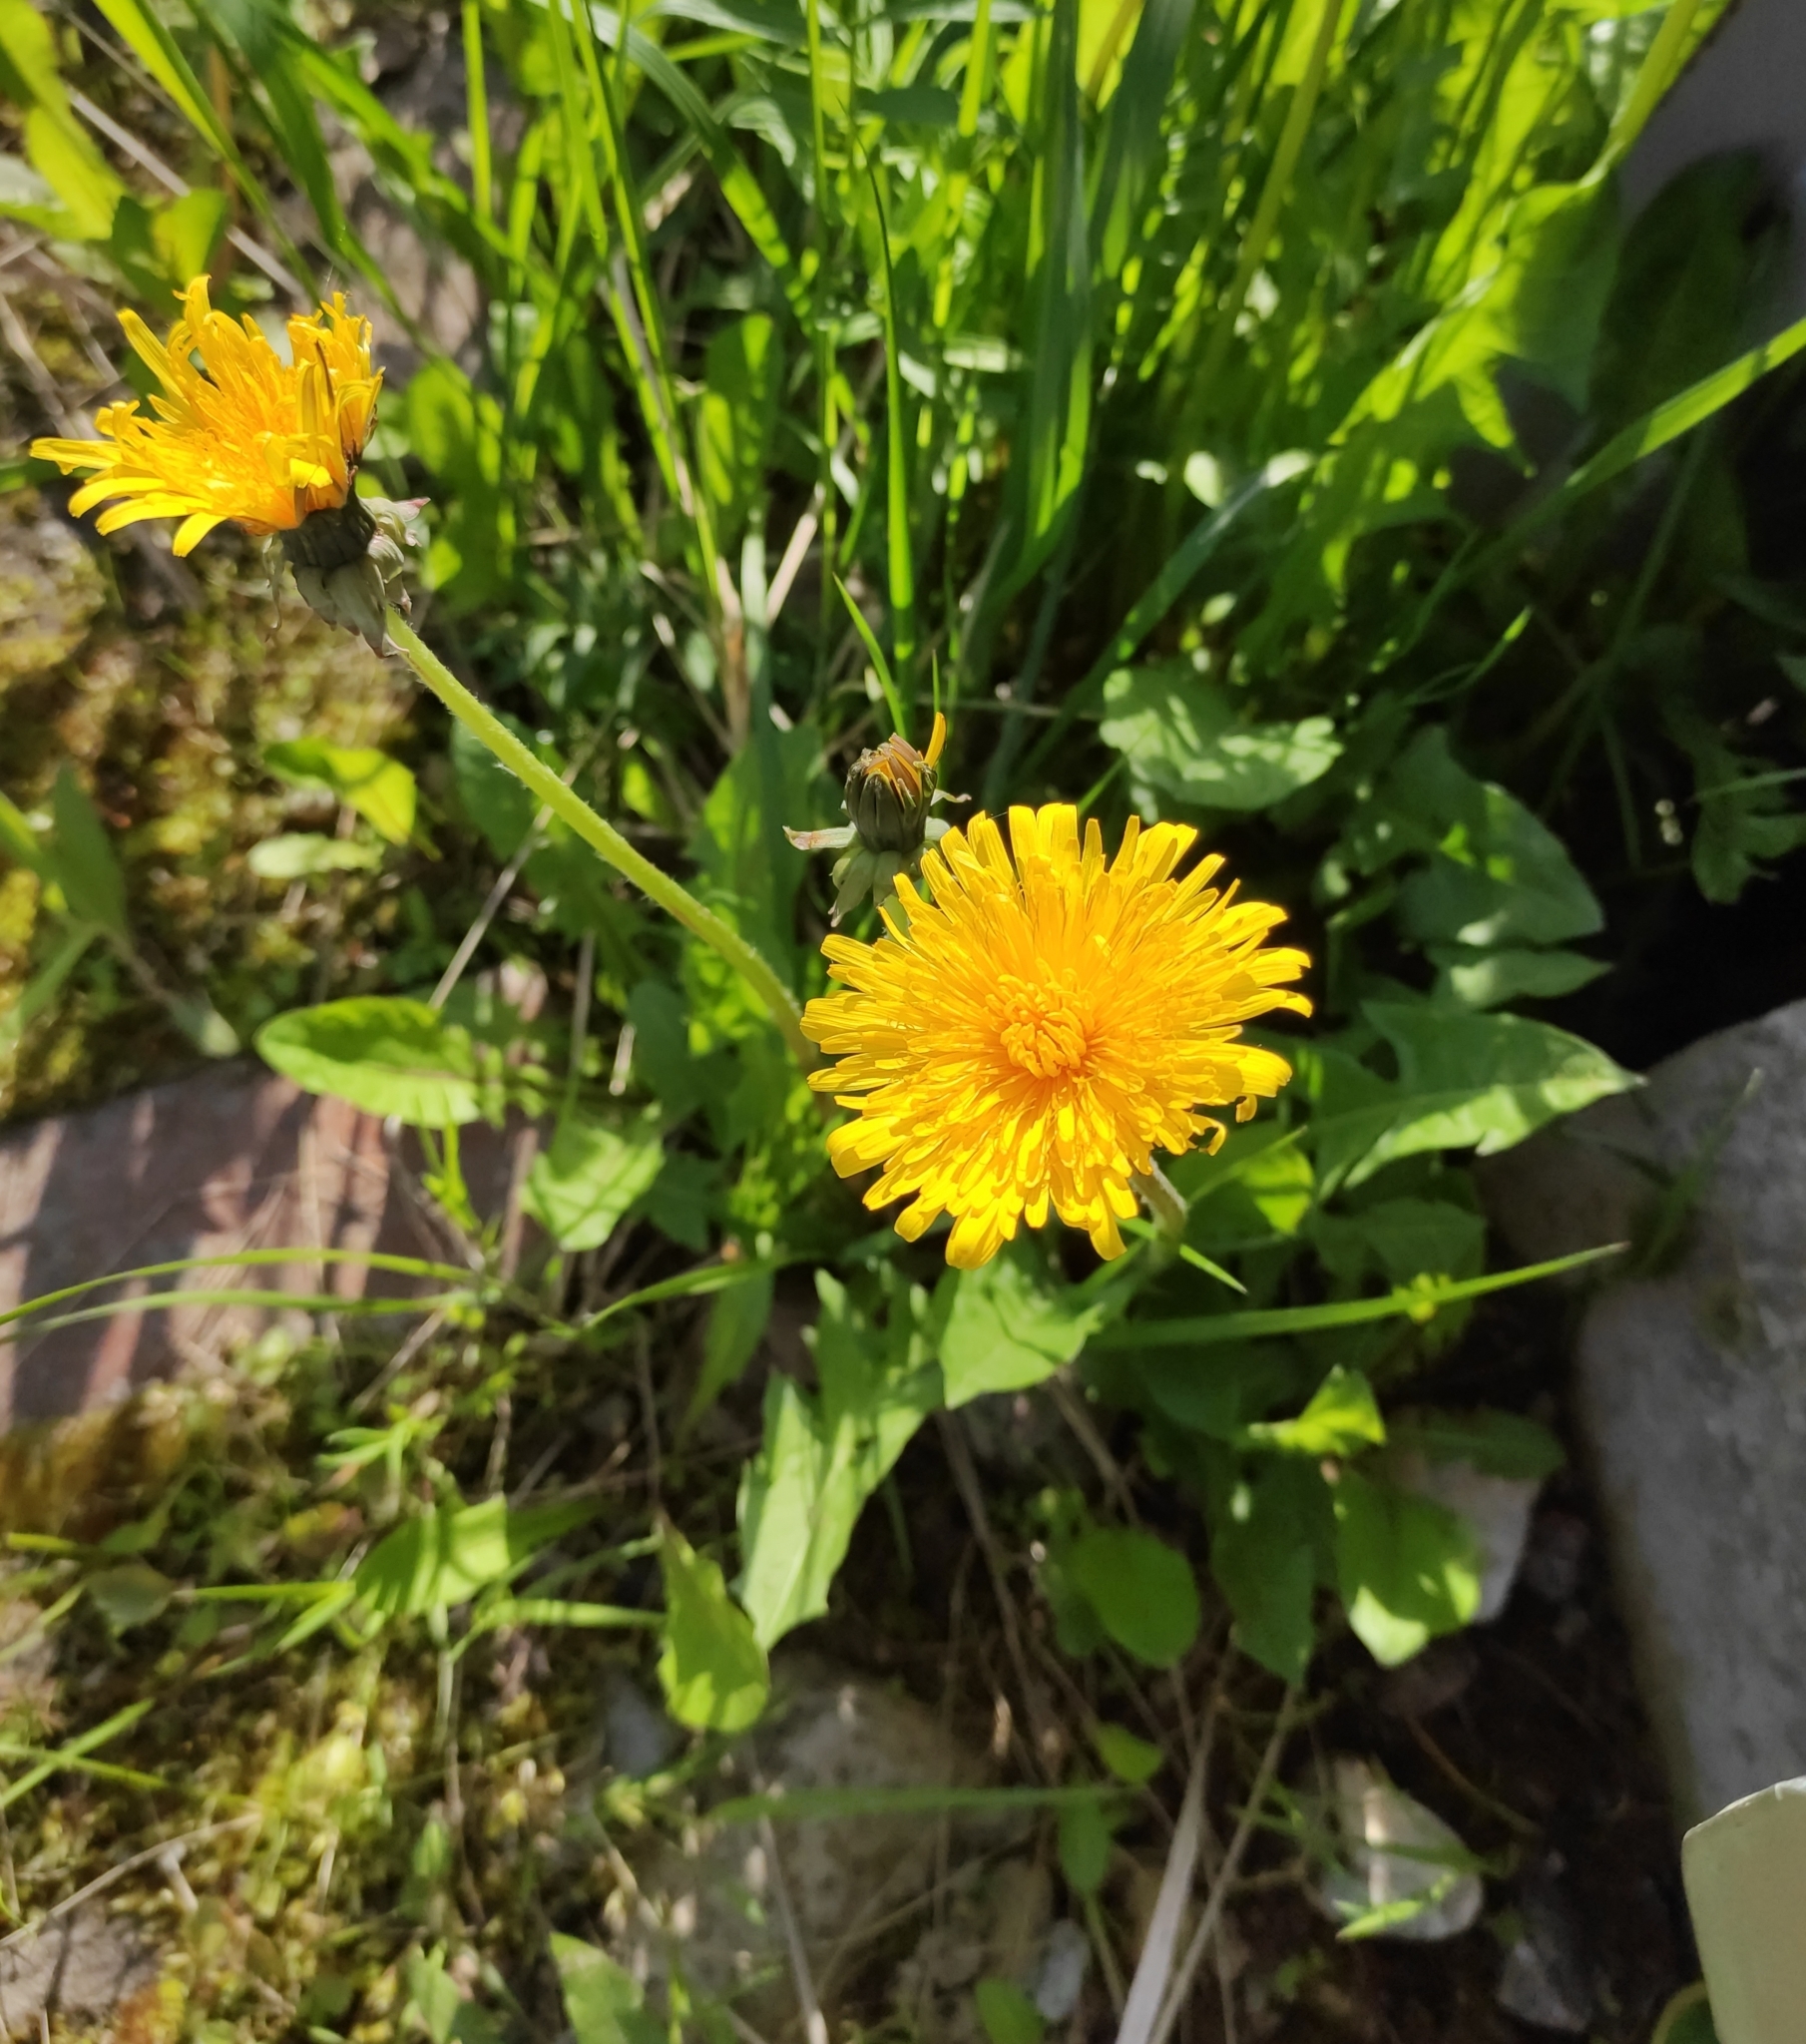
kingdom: Plantae
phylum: Tracheophyta
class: Magnoliopsida
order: Asterales
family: Asteraceae
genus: Taraxacum
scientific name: Taraxacum officinale
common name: Common dandelion
